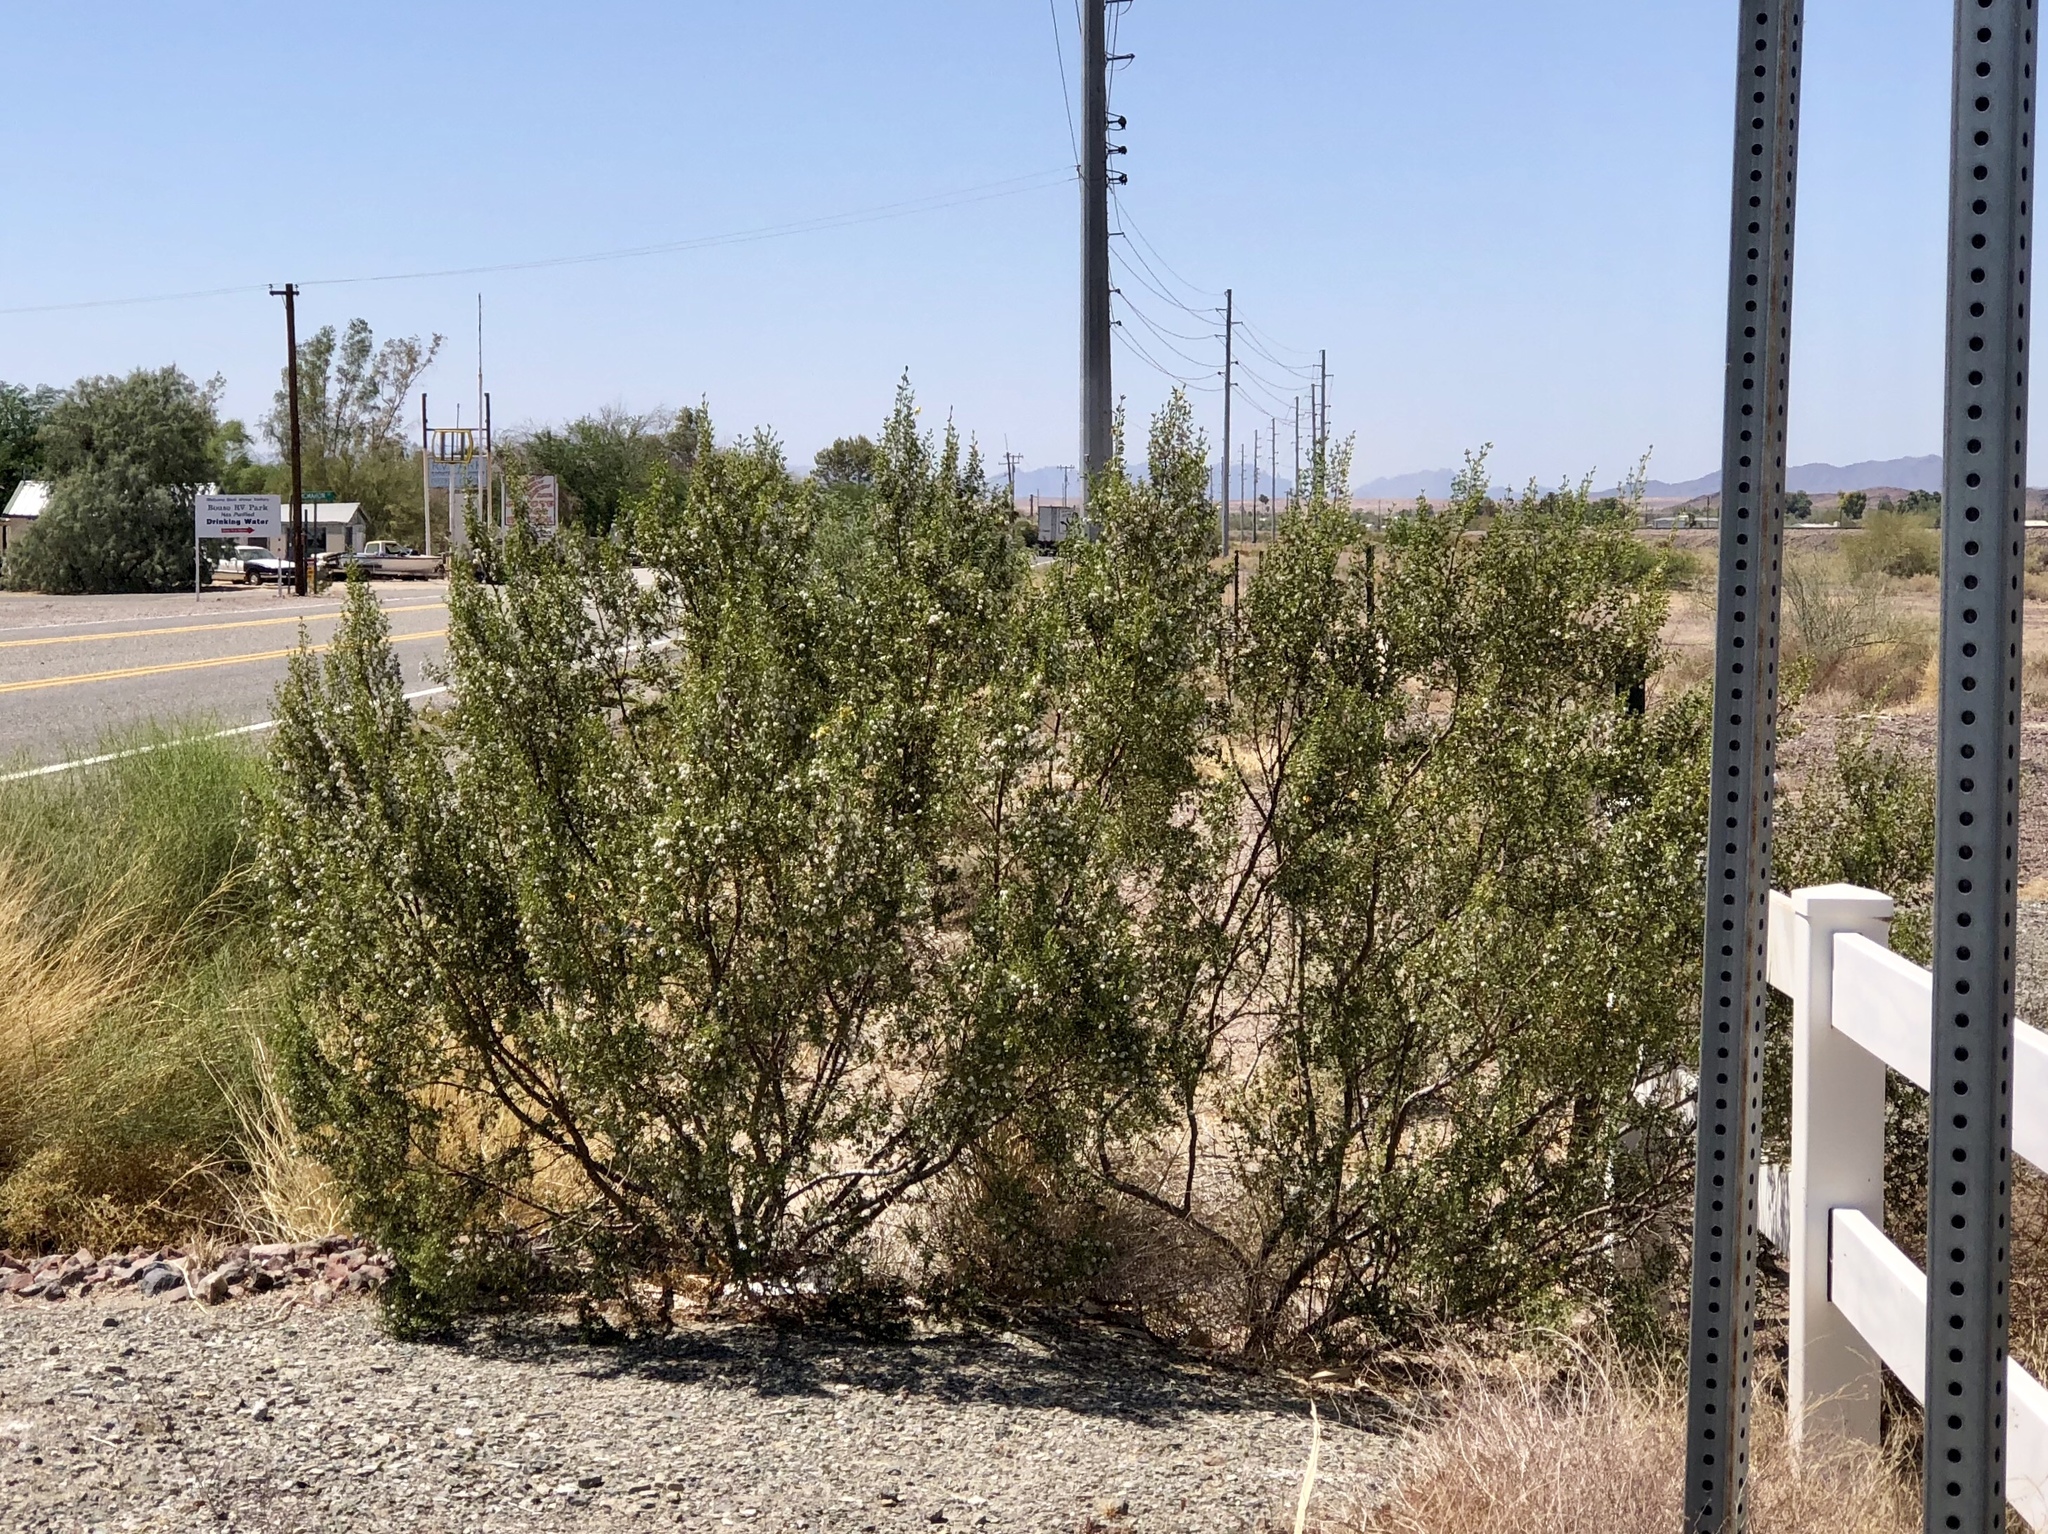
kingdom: Plantae
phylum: Tracheophyta
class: Magnoliopsida
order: Zygophyllales
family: Zygophyllaceae
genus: Larrea
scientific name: Larrea tridentata
